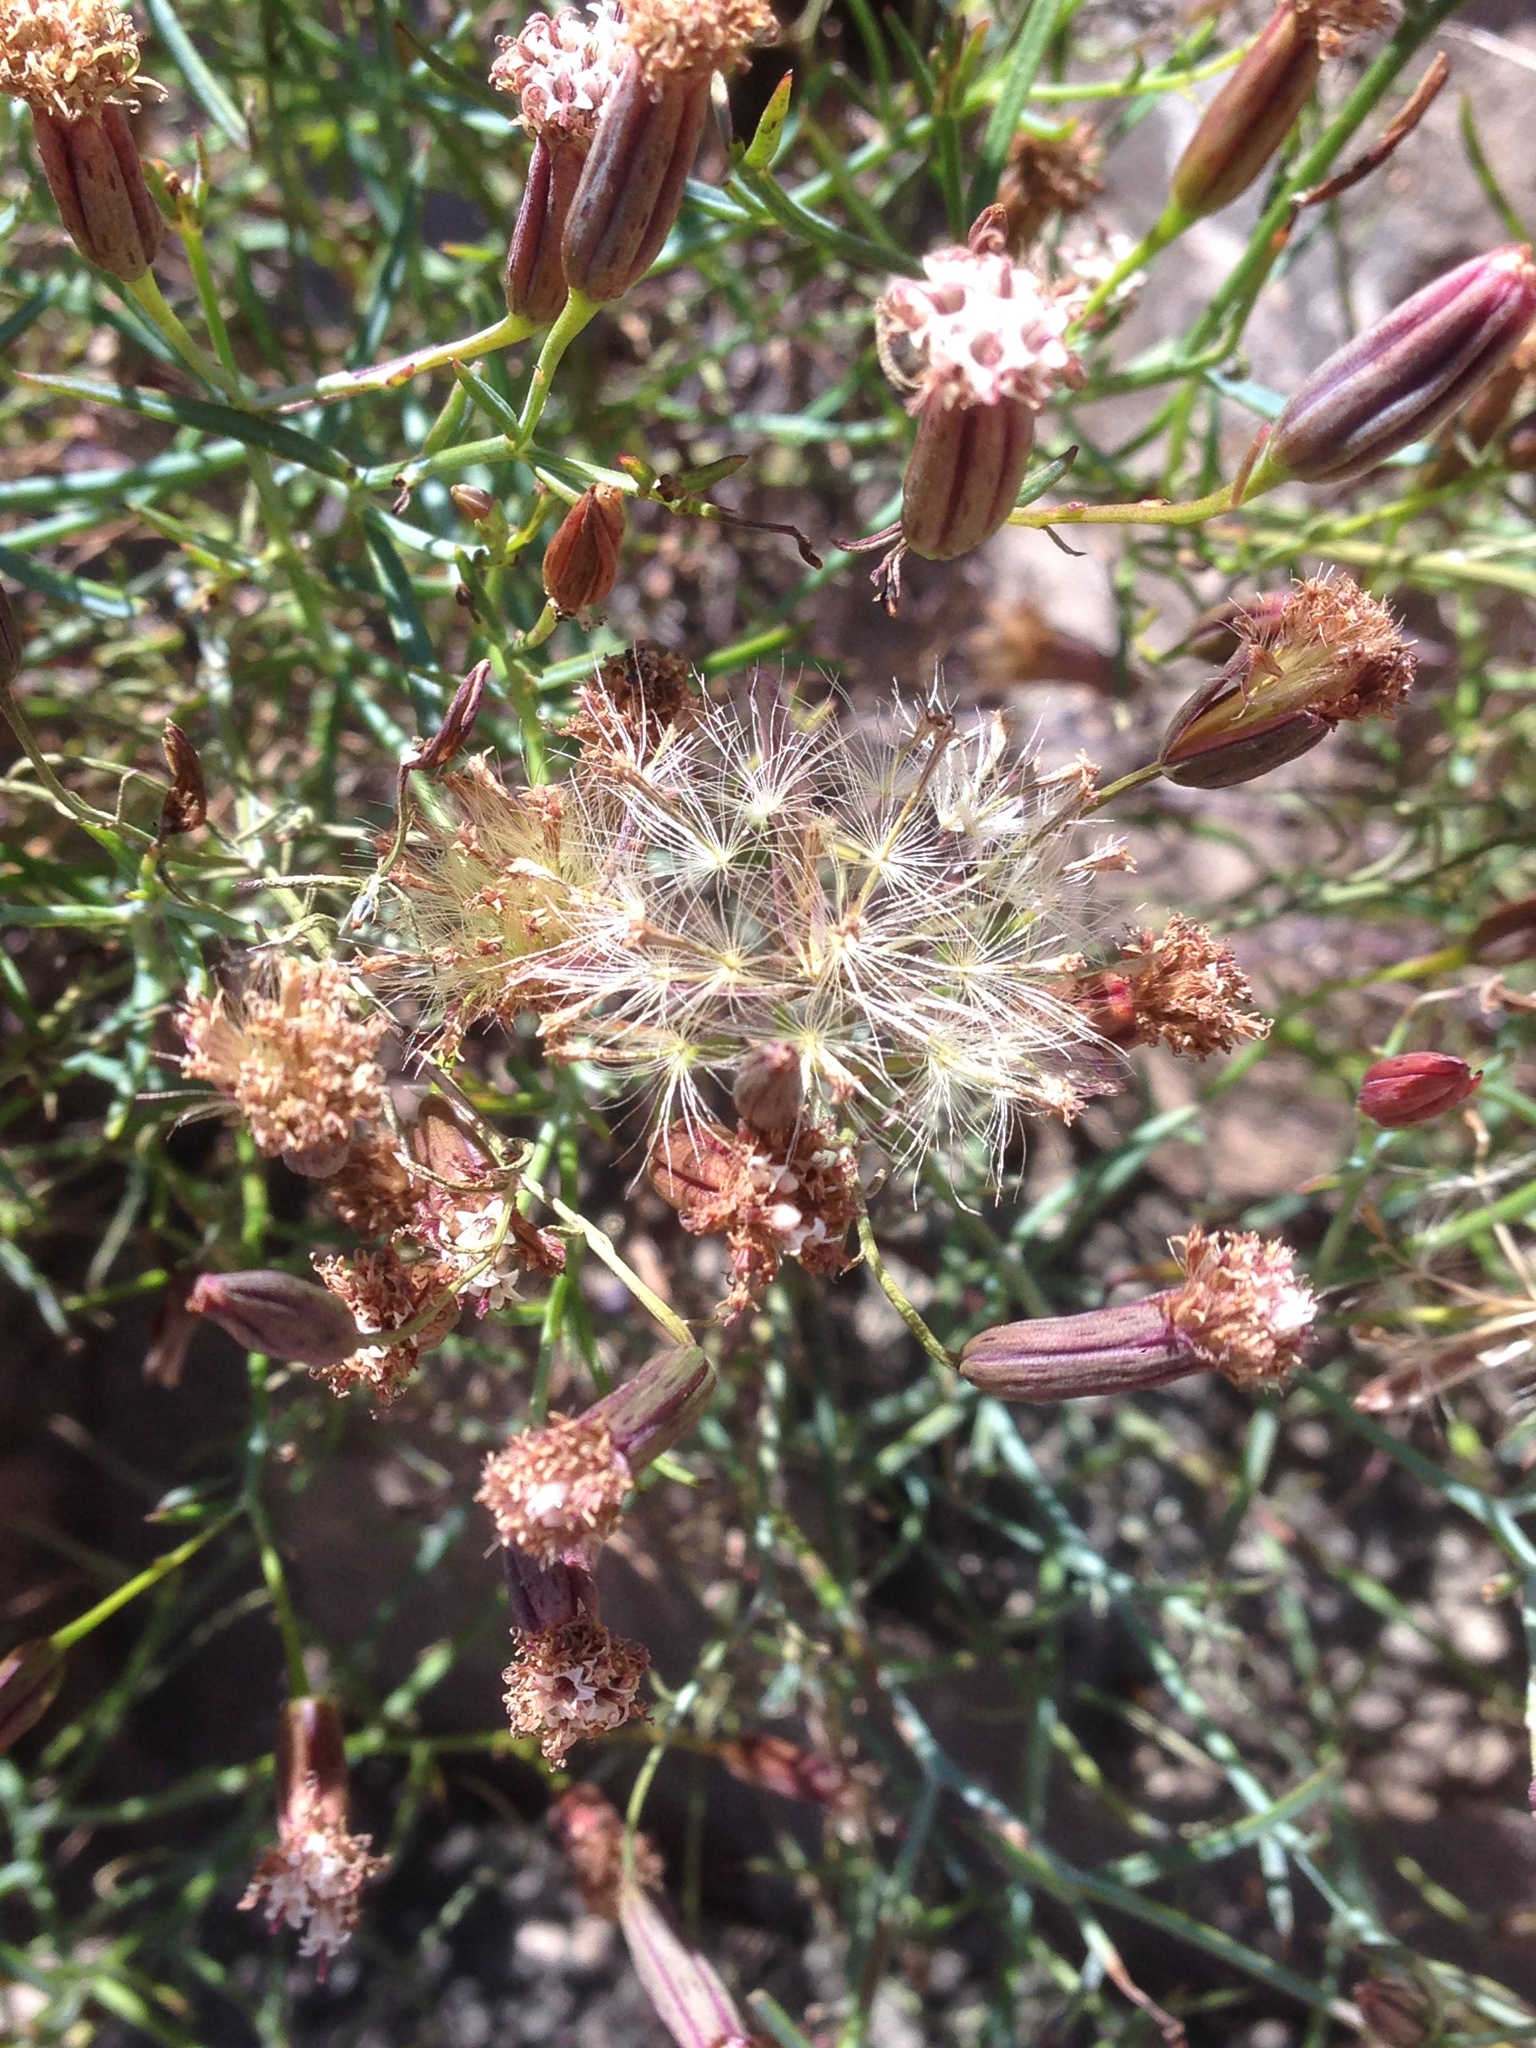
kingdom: Plantae
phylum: Tracheophyta
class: Magnoliopsida
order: Asterales
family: Asteraceae
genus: Porophyllum
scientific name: Porophyllum gracile
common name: Odora
